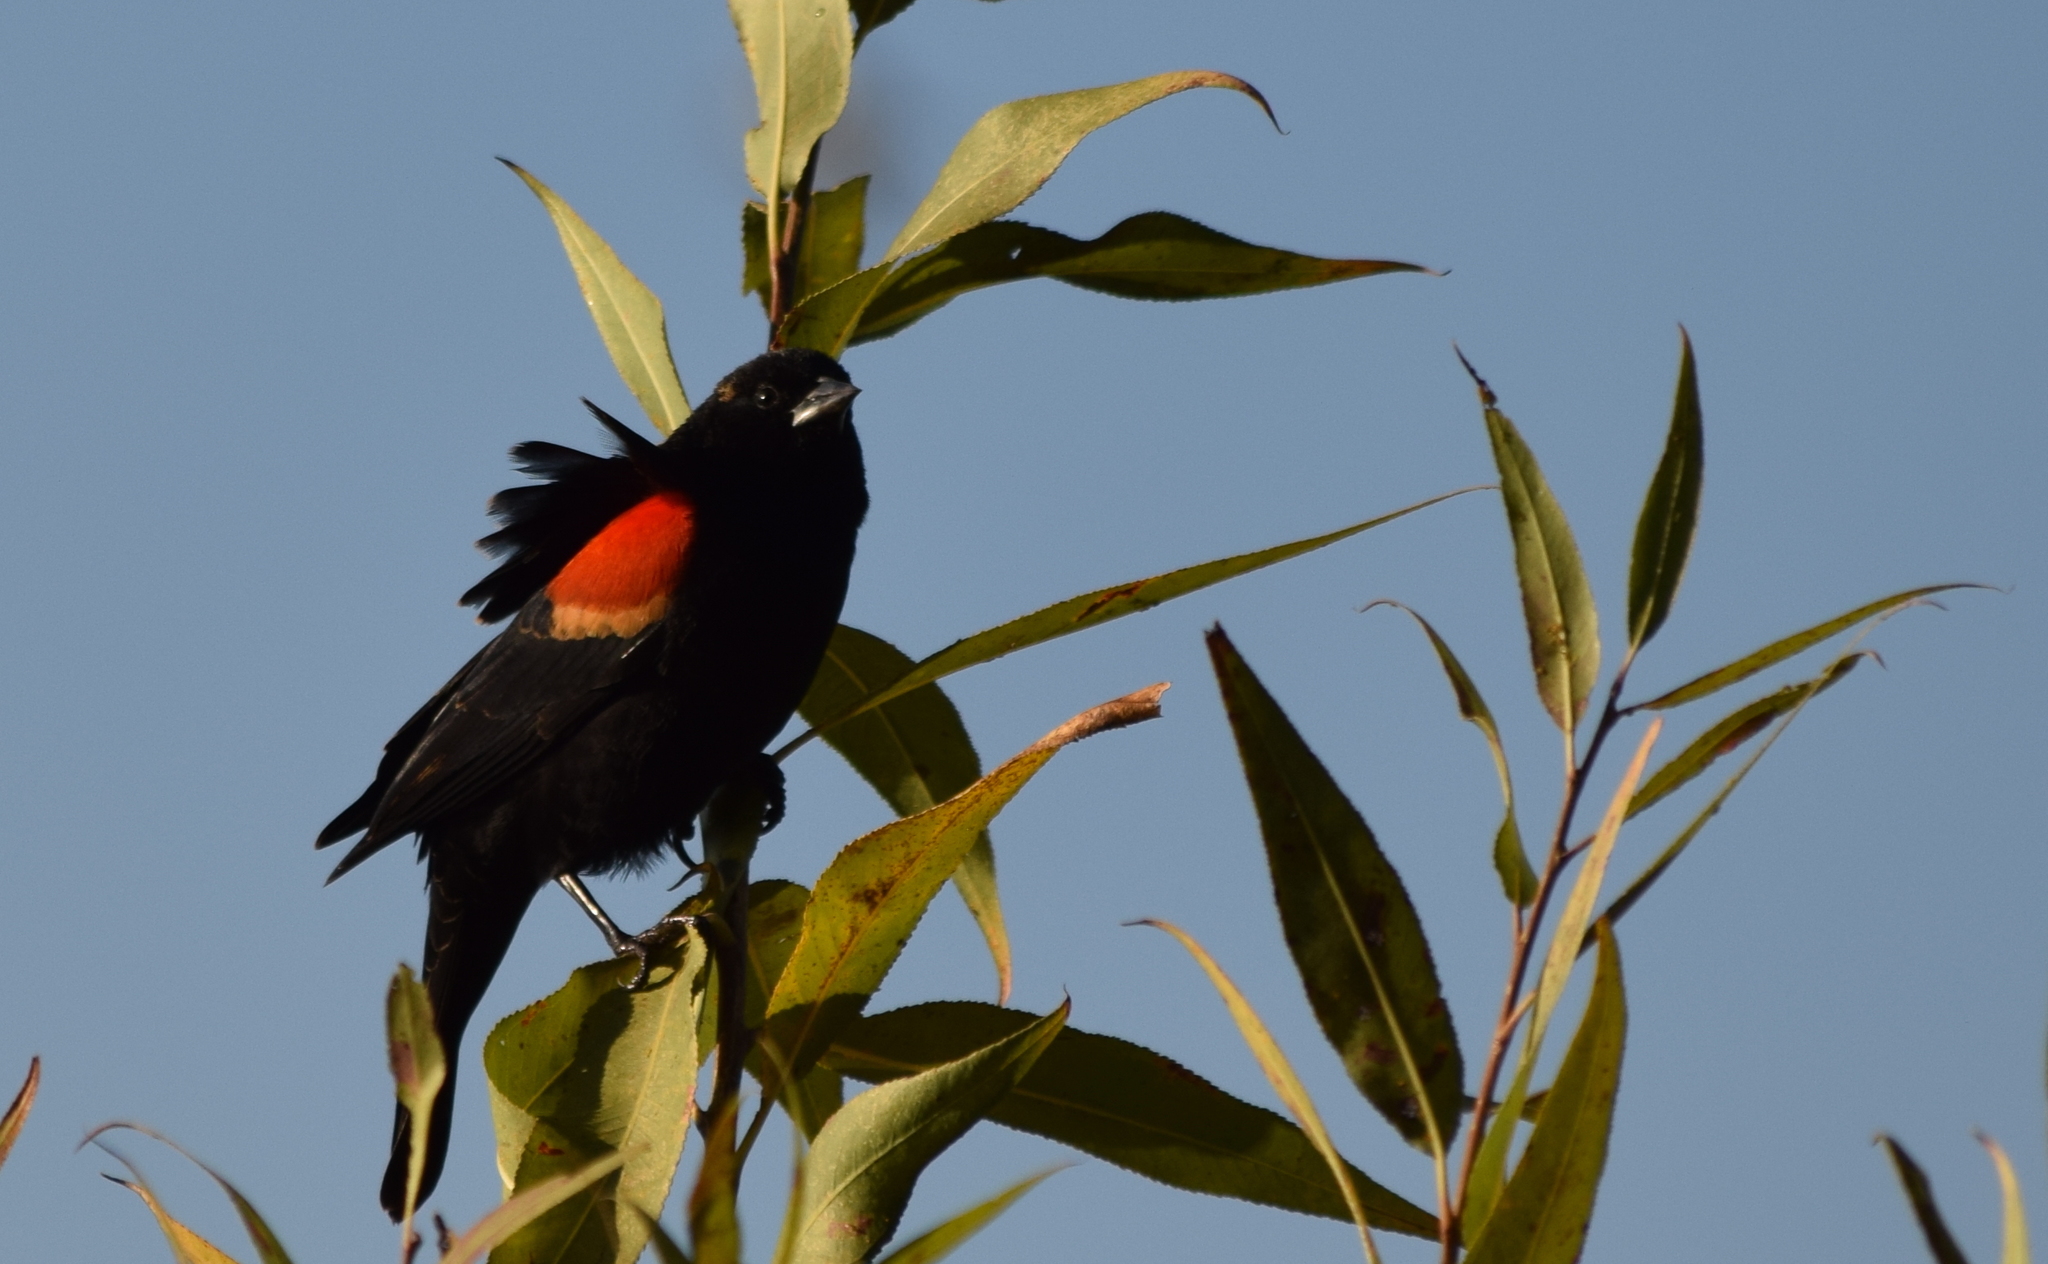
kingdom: Animalia
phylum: Chordata
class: Aves
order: Passeriformes
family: Icteridae
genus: Agelaius
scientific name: Agelaius phoeniceus
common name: Red-winged blackbird
